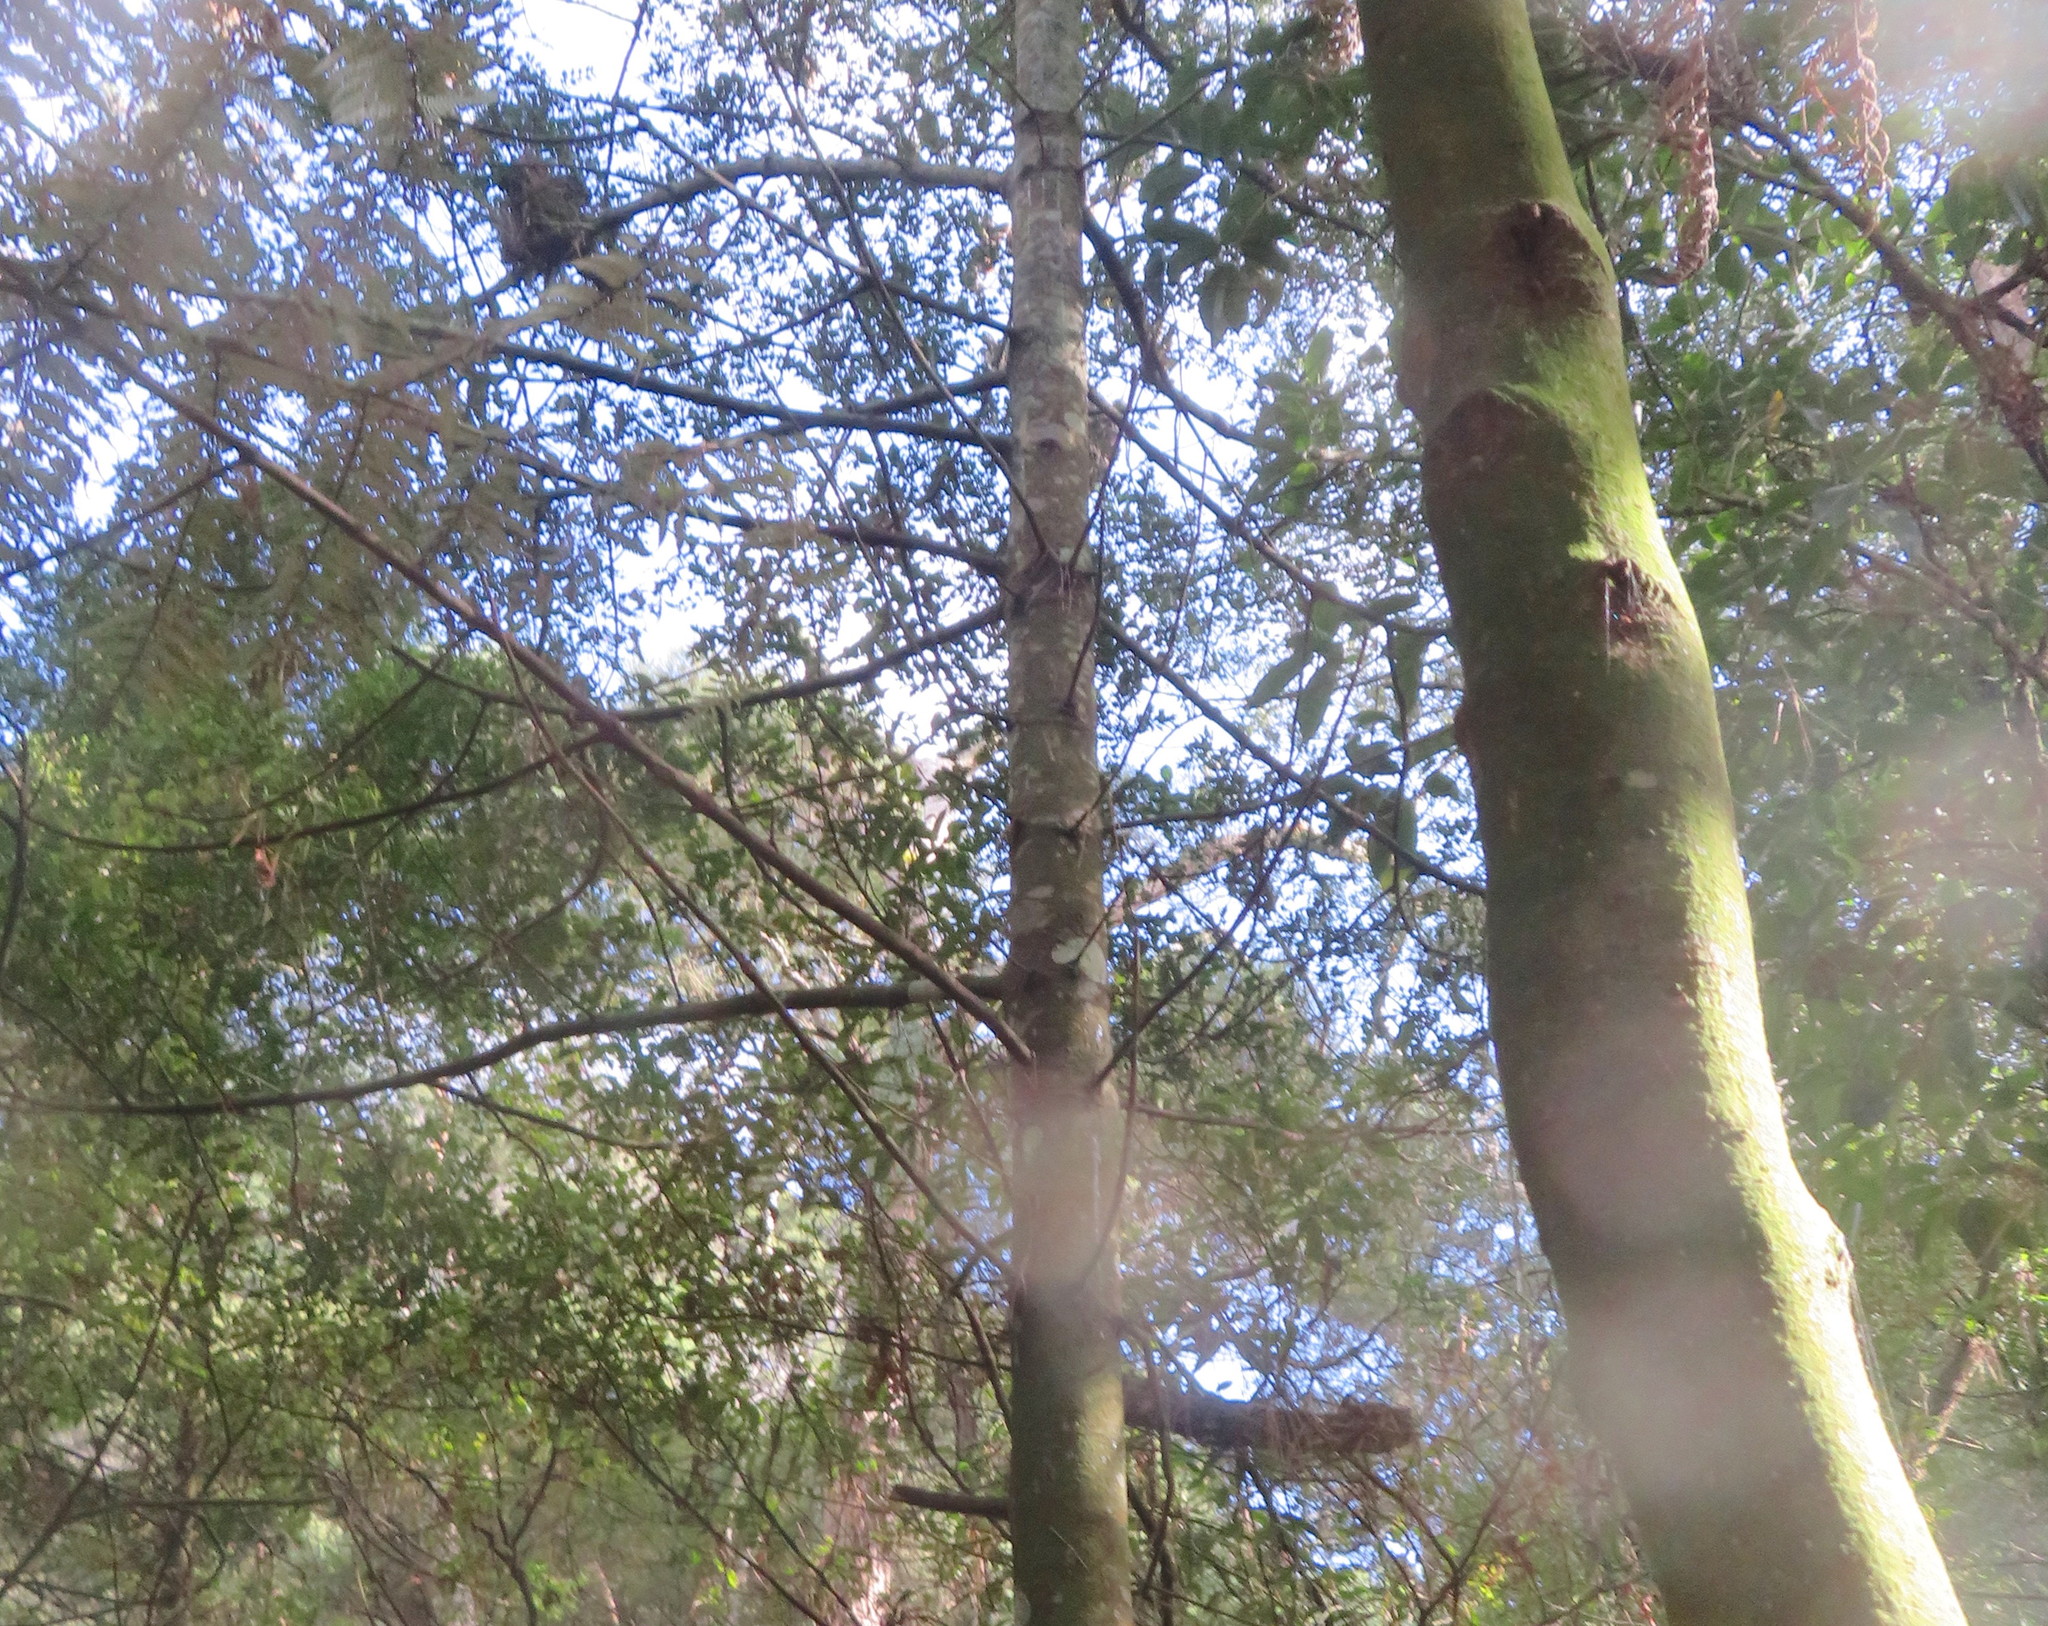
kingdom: Plantae
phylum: Tracheophyta
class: Pinopsida
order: Pinales
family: Phyllocladaceae
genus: Phyllocladus
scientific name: Phyllocladus trichomanoides
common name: Celery pine
